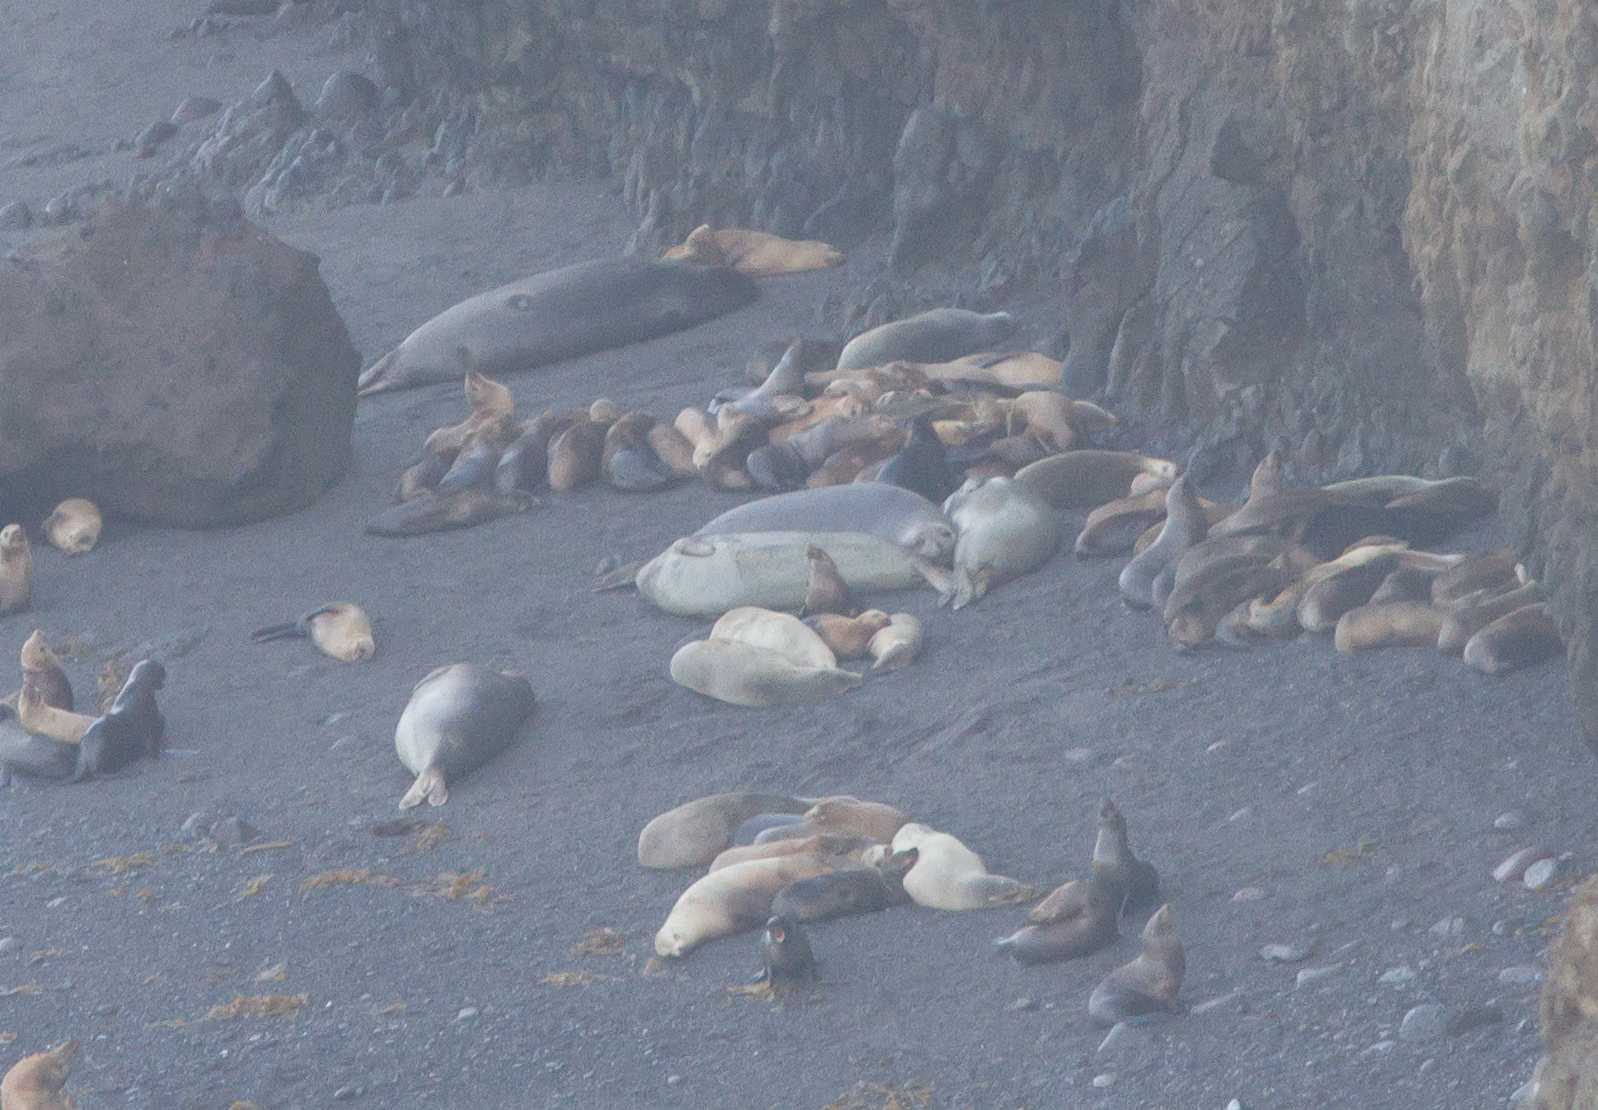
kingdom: Animalia
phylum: Chordata
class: Mammalia
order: Carnivora
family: Phocidae
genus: Mirounga
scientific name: Mirounga angustirostris
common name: Northern elephant seal
